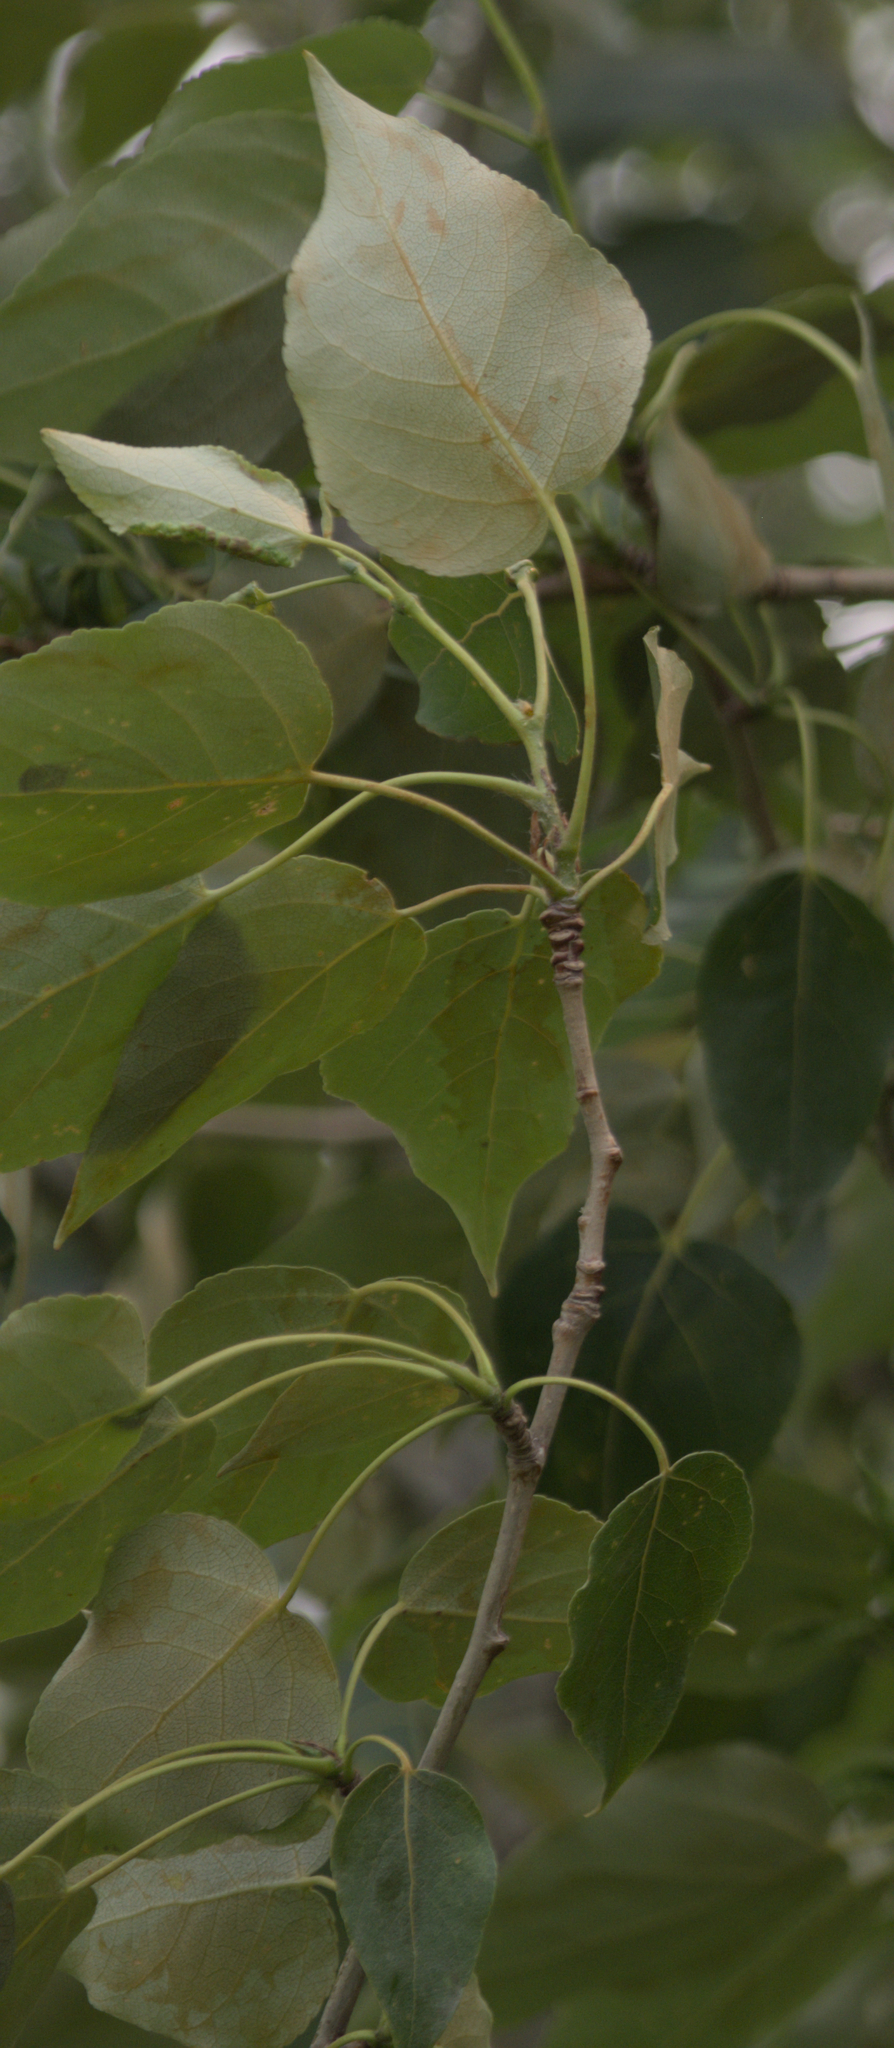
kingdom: Plantae
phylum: Tracheophyta
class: Magnoliopsida
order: Malpighiales
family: Salicaceae
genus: Populus
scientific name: Populus balsamifera
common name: Balsam poplar
